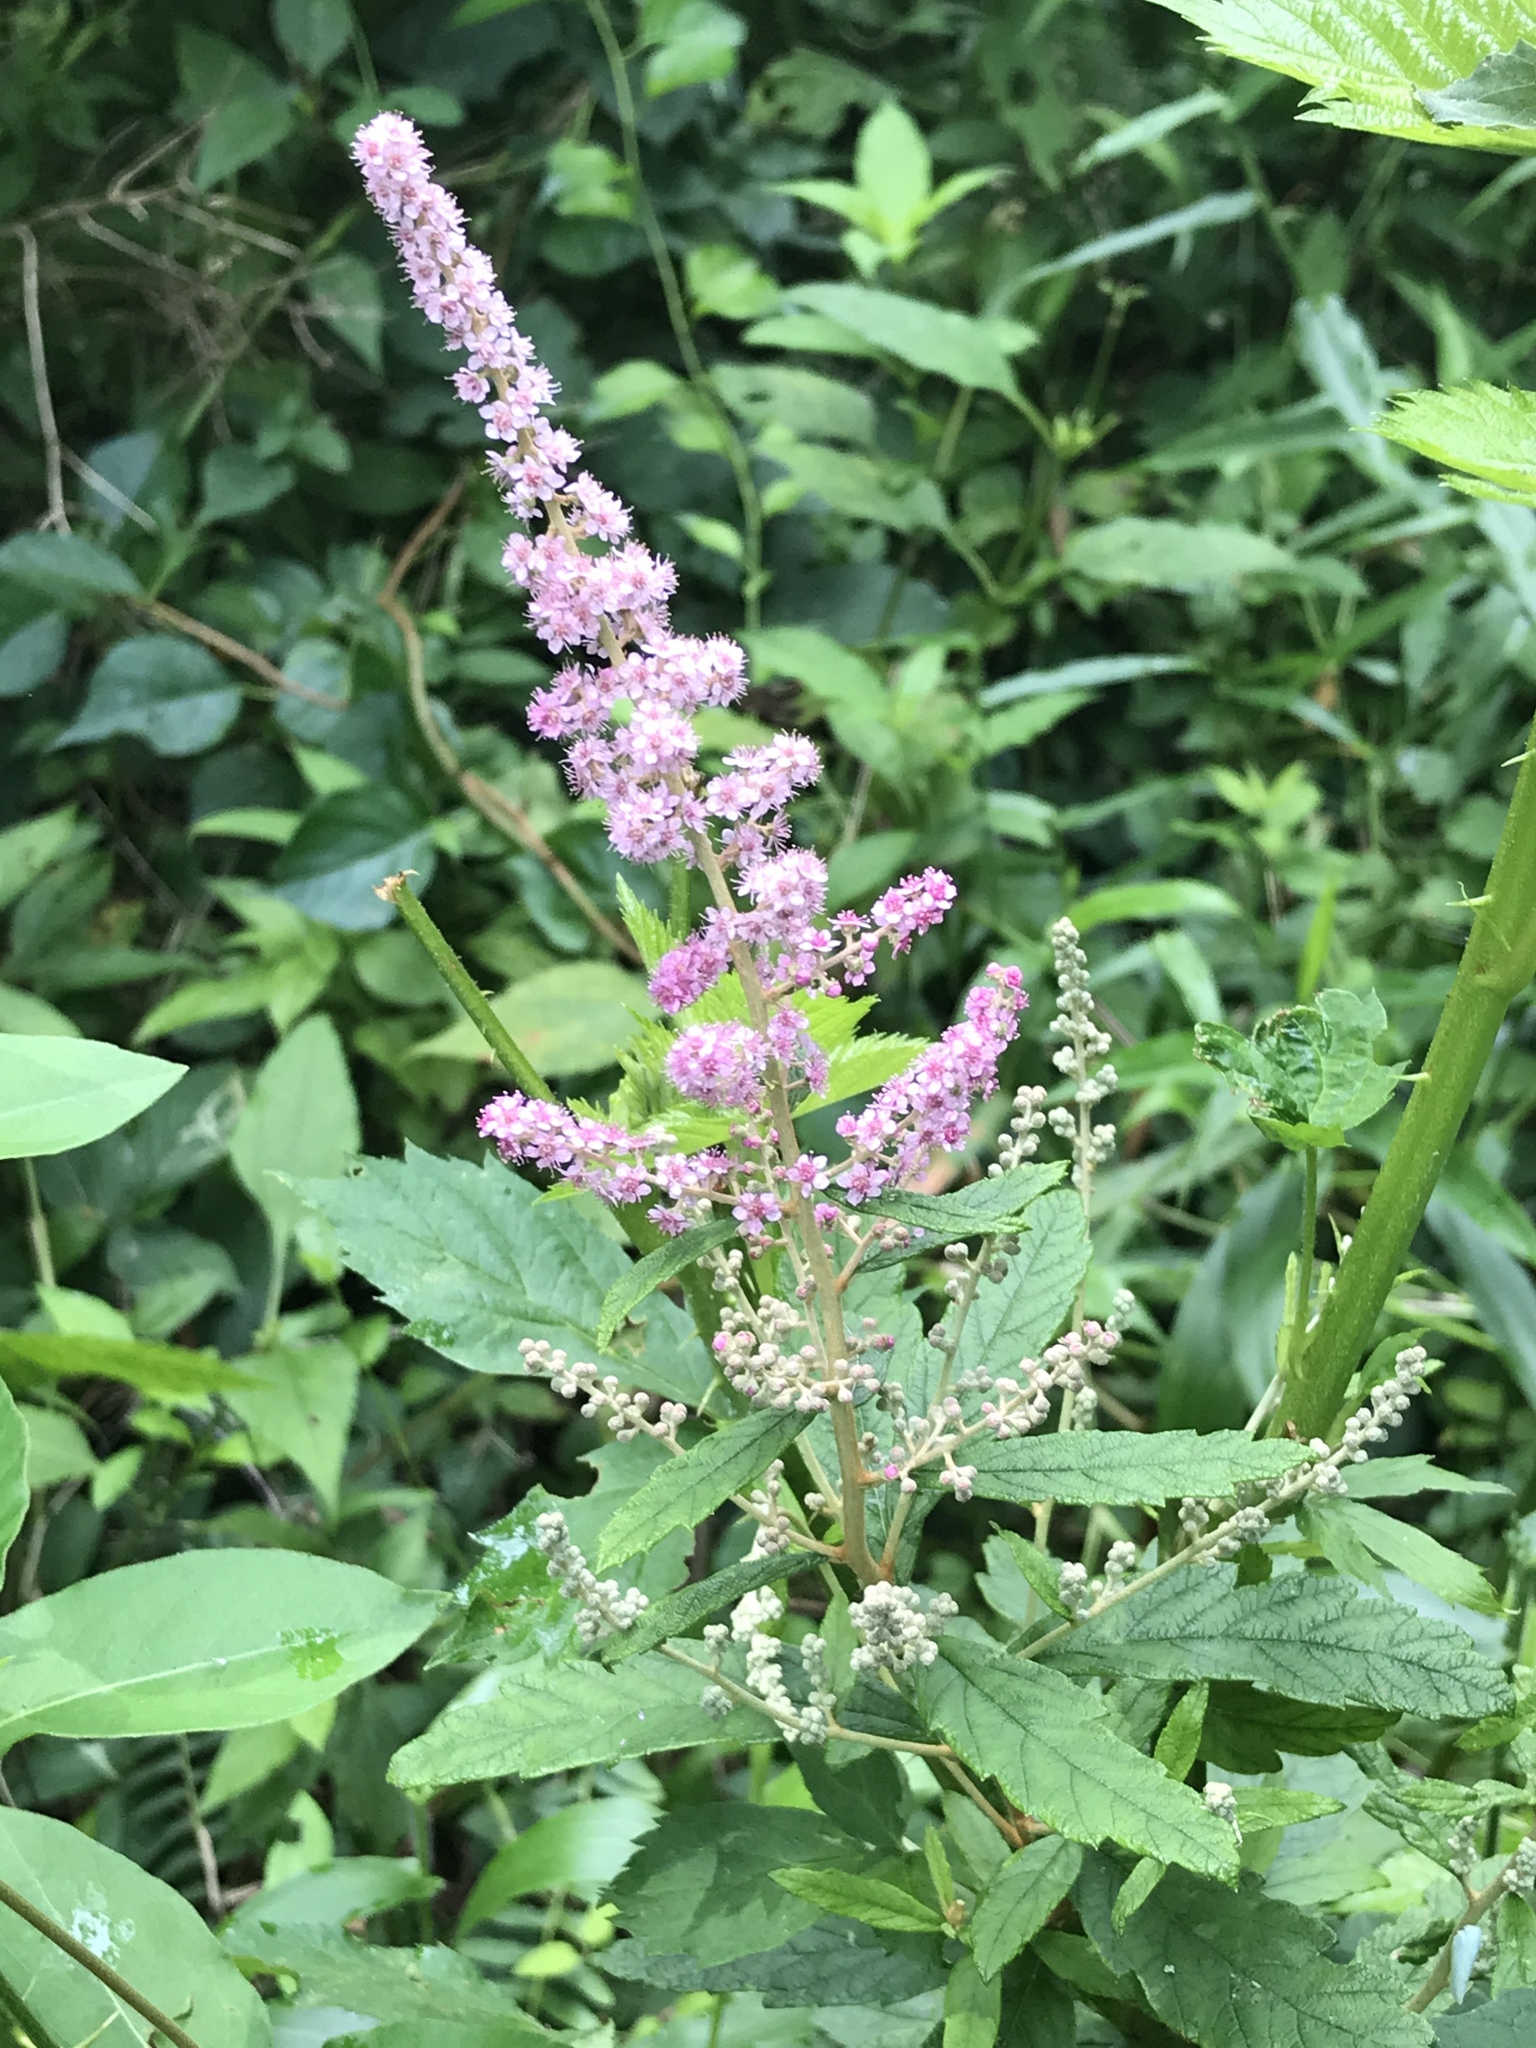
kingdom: Plantae
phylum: Tracheophyta
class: Magnoliopsida
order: Rosales
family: Rosaceae
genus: Spiraea
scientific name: Spiraea tomentosa
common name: Hardhack
